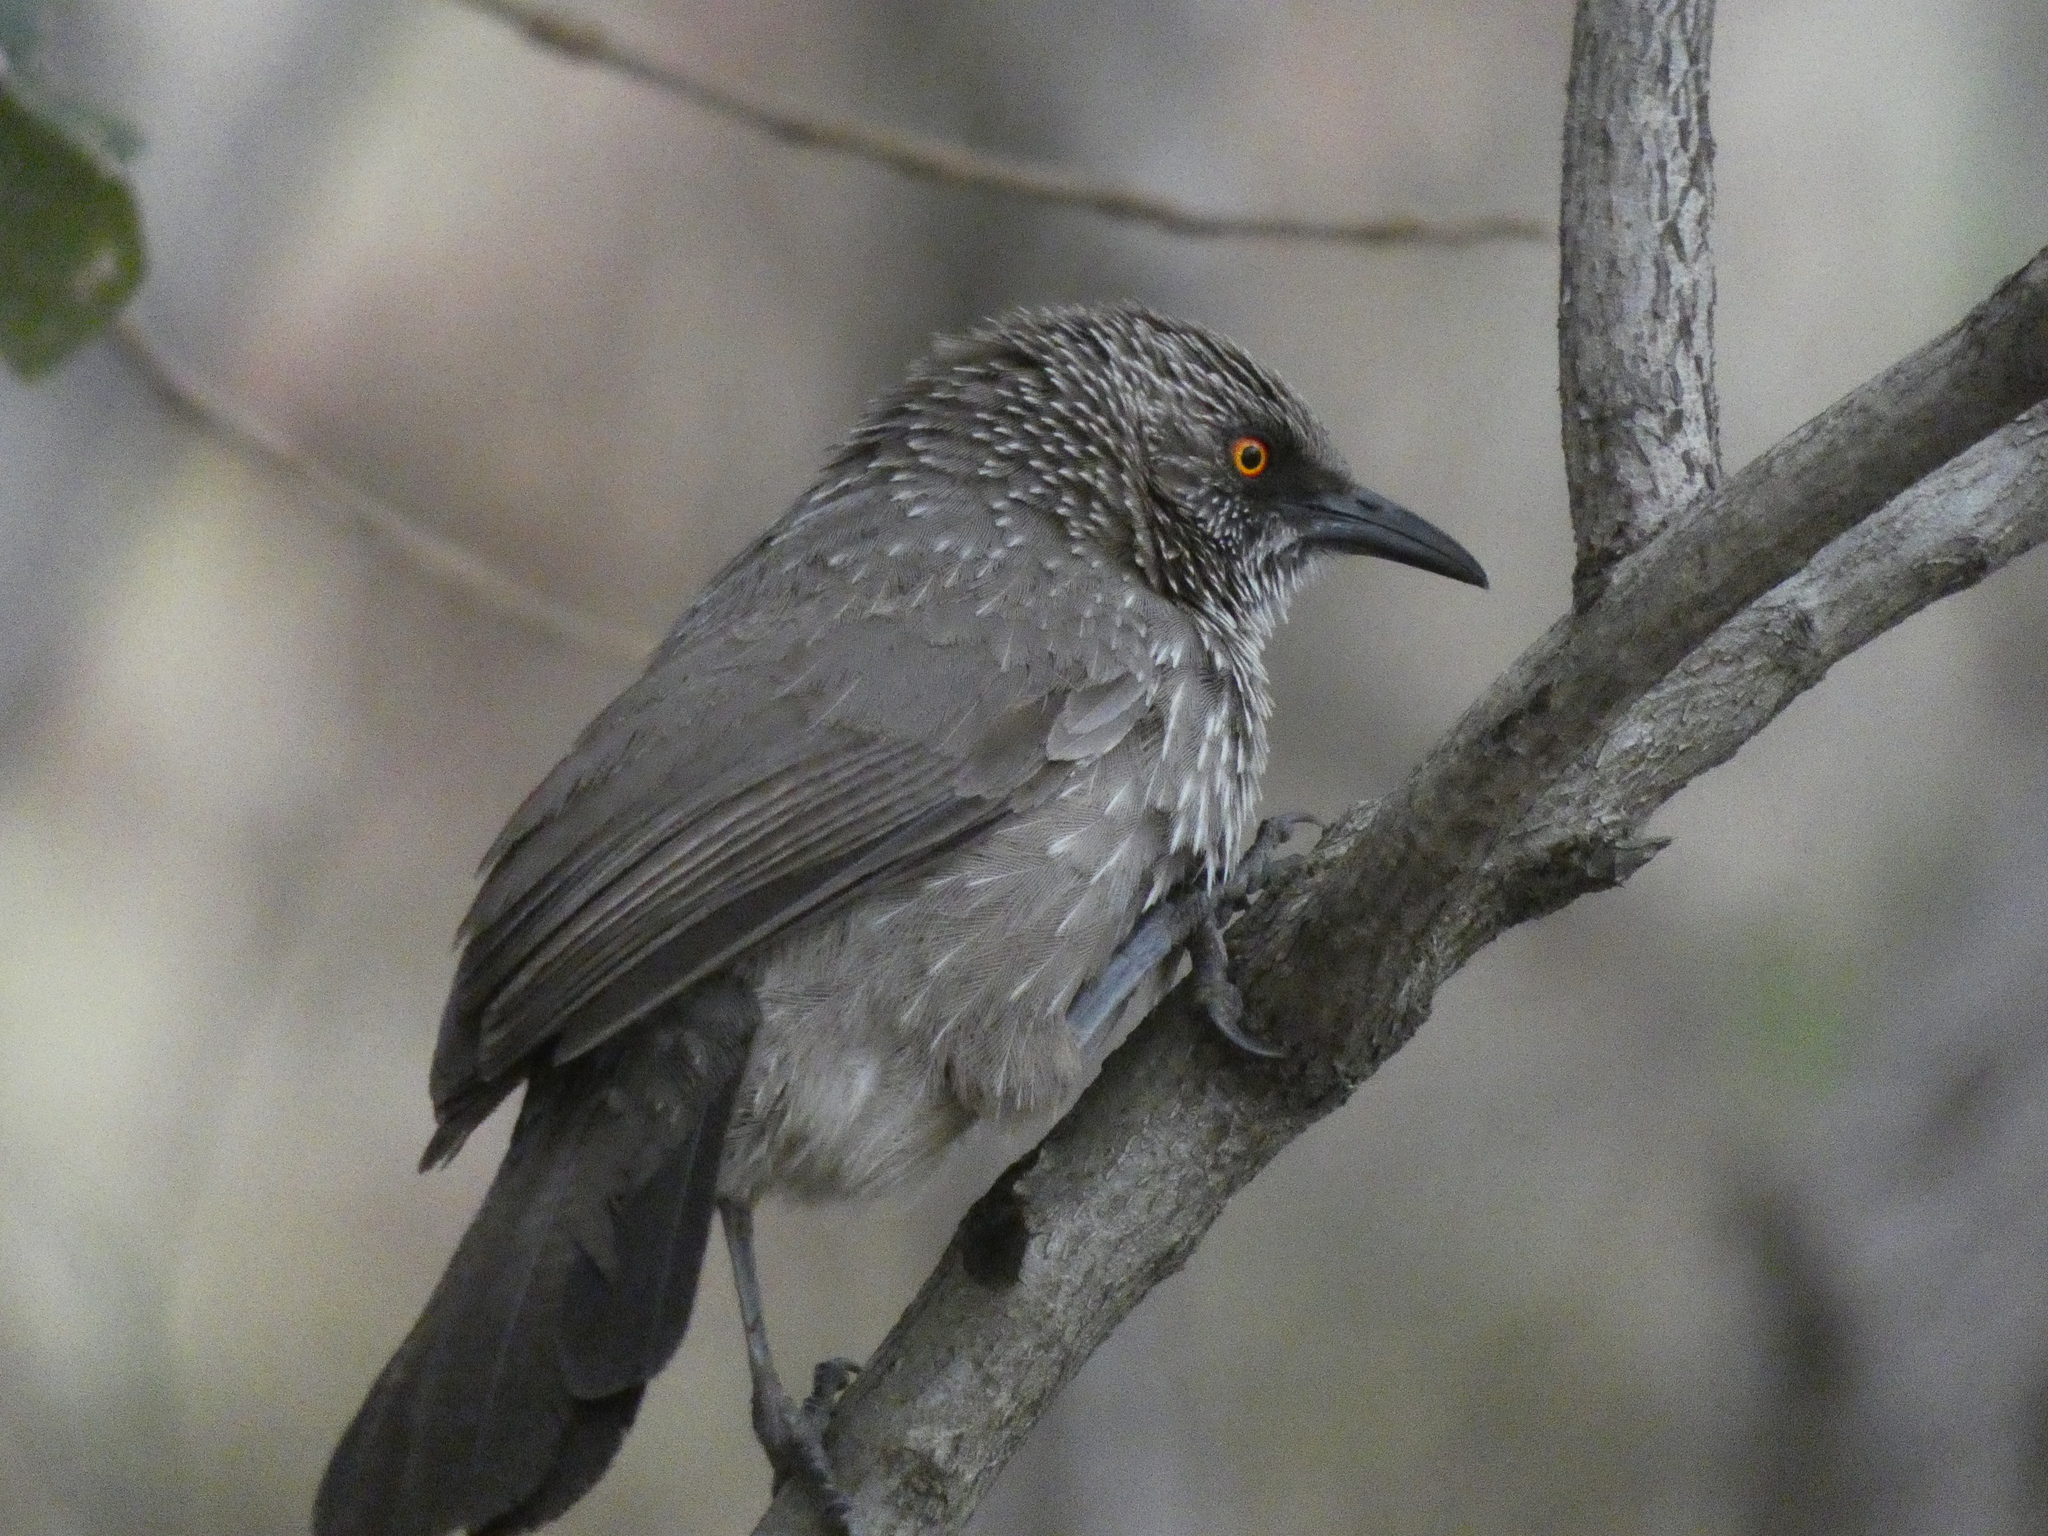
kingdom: Animalia
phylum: Chordata
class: Aves
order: Passeriformes
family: Leiothrichidae
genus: Turdoides
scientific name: Turdoides jardineii
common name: Arrow-marked babbler
